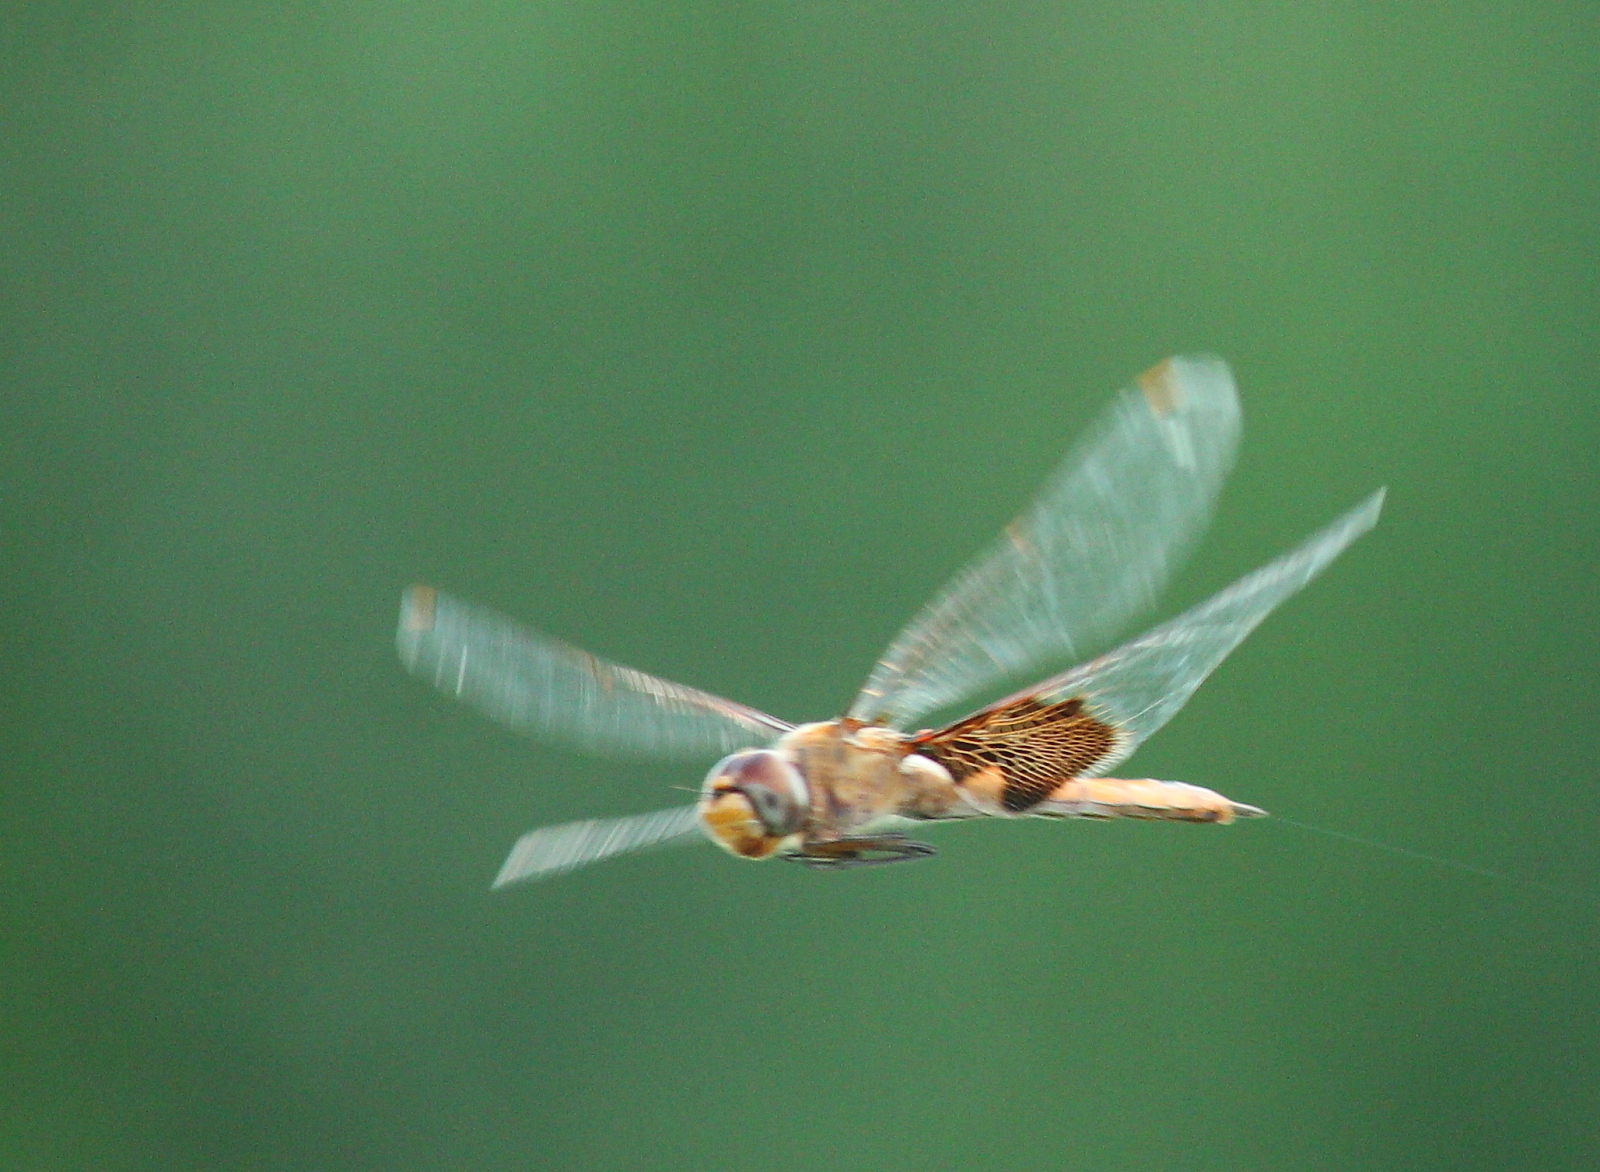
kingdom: Animalia
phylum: Arthropoda
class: Insecta
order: Odonata
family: Libellulidae
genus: Tramea
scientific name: Tramea onusta
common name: Red saddlebags
